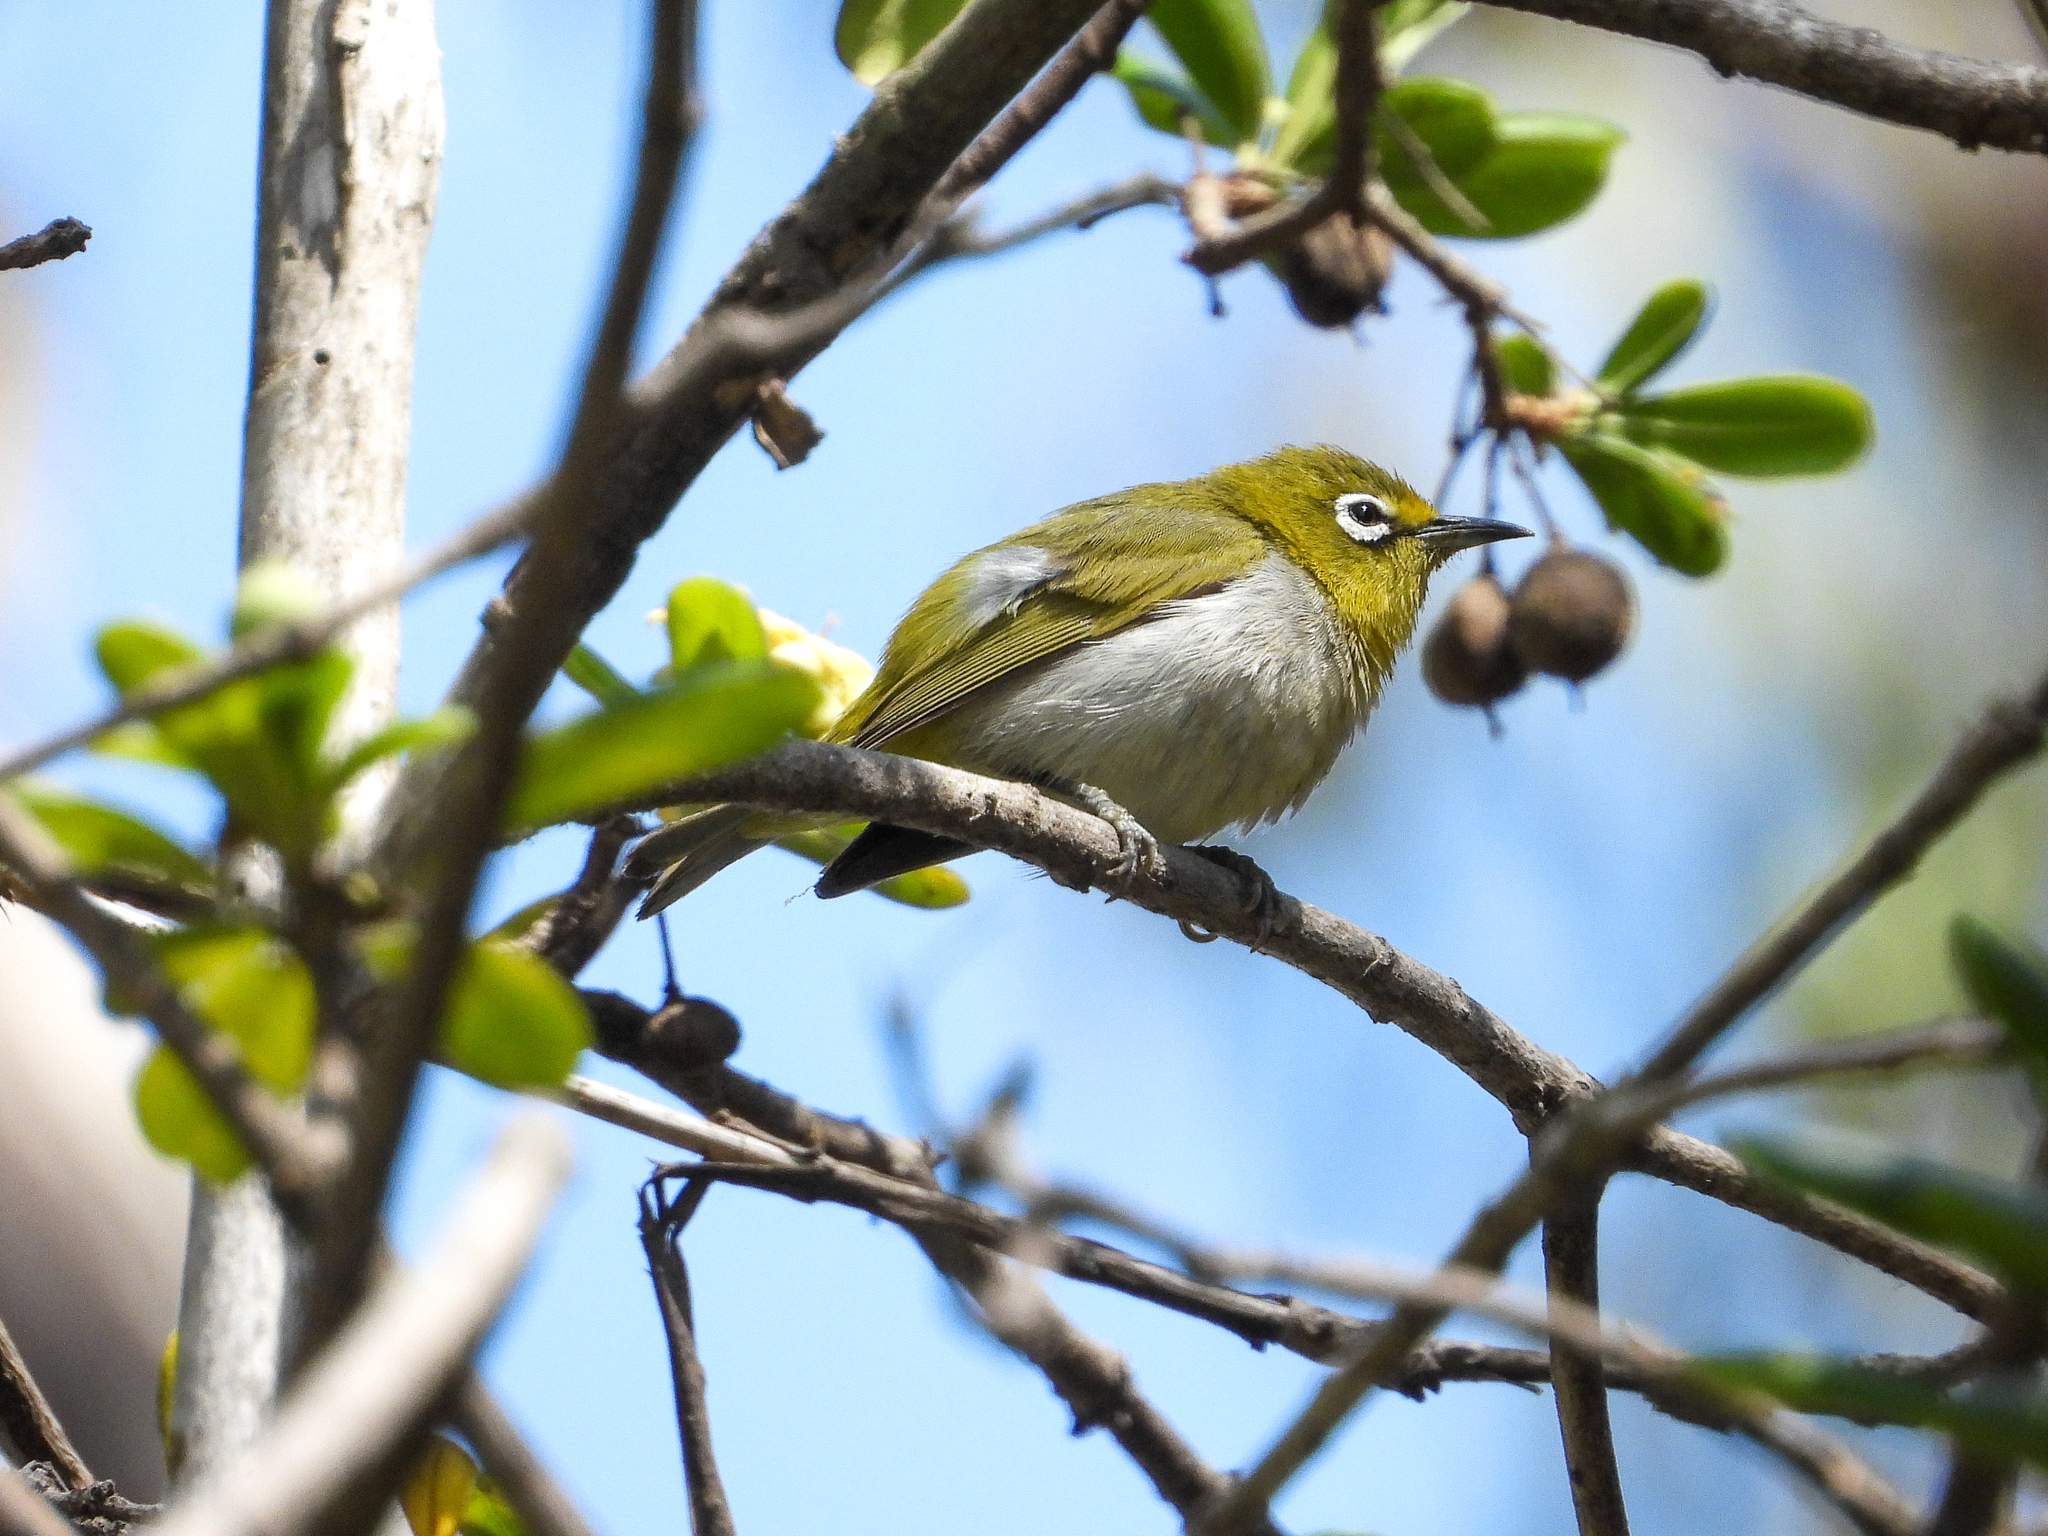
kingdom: Animalia
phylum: Chordata
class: Aves
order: Passeriformes
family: Zosteropidae
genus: Zosterops
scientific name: Zosterops simplex
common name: Swinhoe's white-eye
